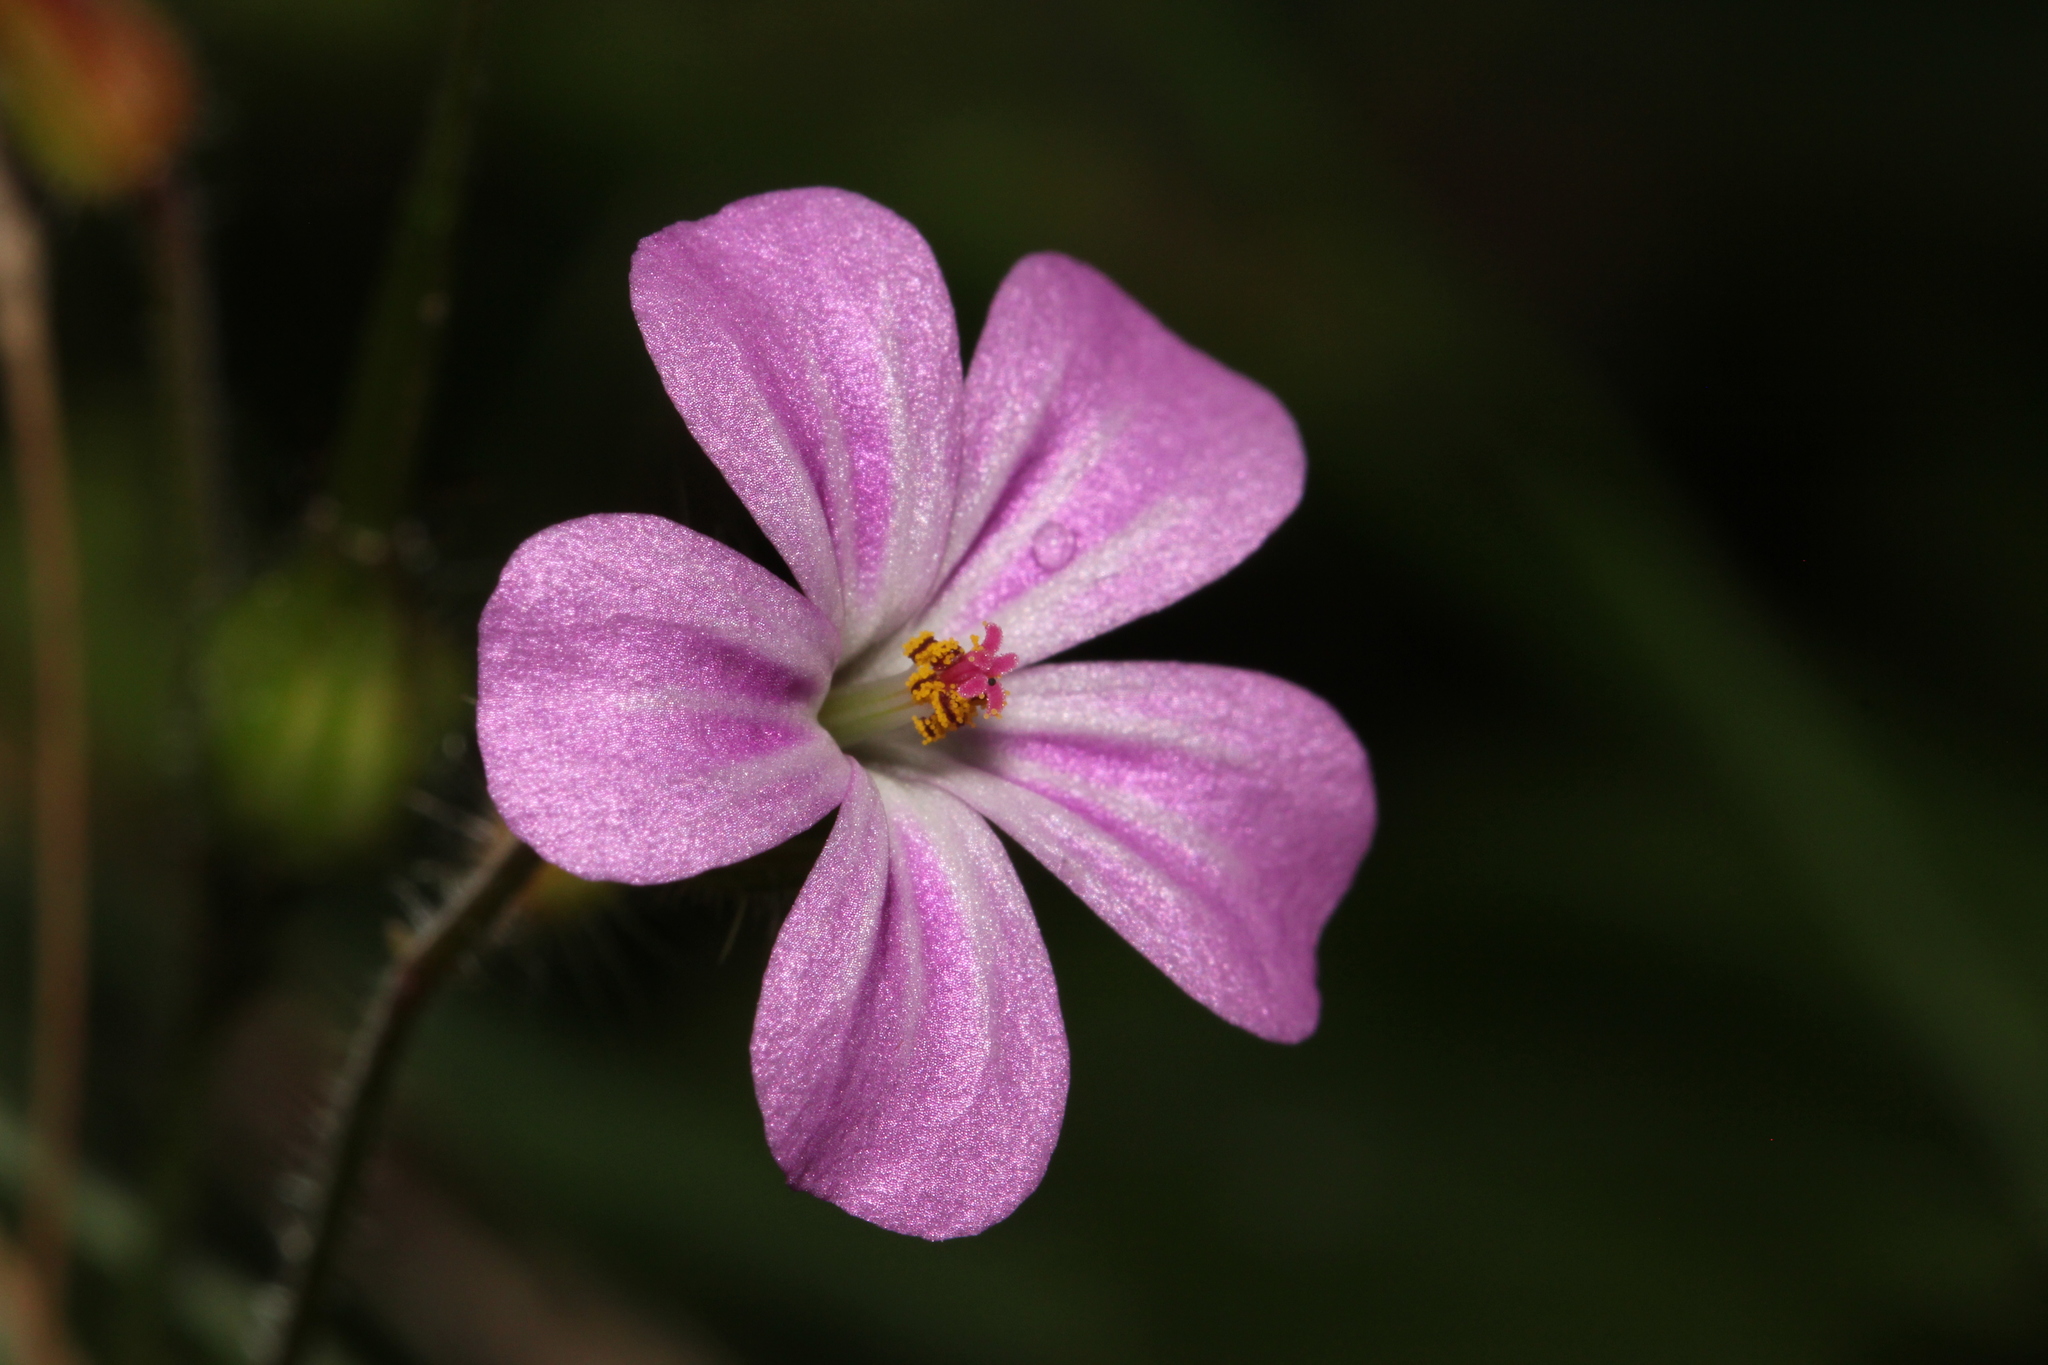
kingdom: Plantae
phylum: Tracheophyta
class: Magnoliopsida
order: Geraniales
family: Geraniaceae
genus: Geranium
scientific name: Geranium robertianum
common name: Herb-robert
